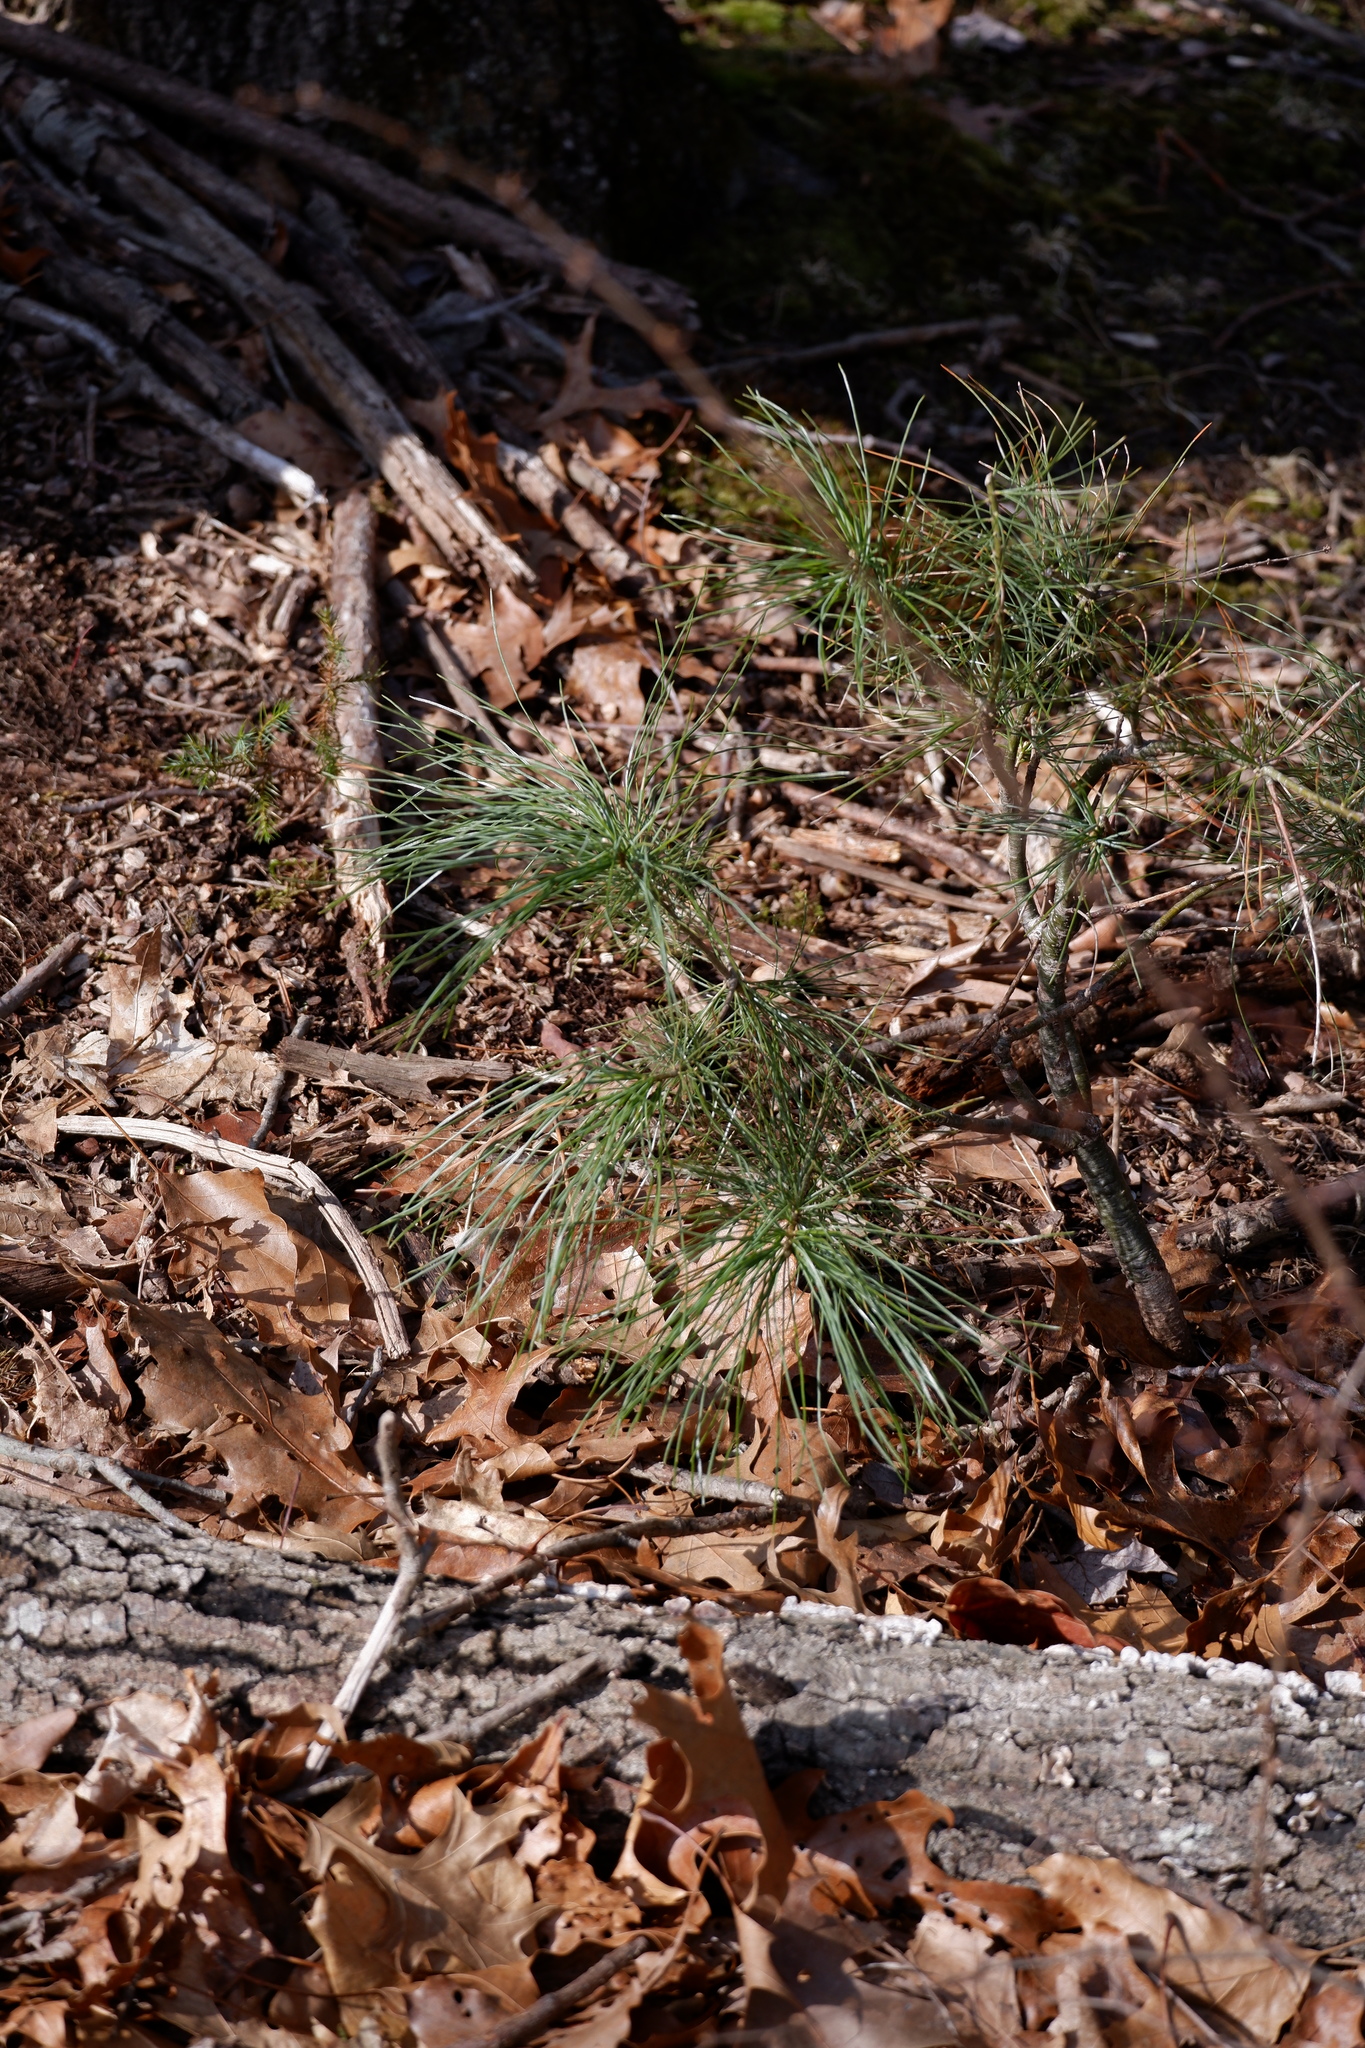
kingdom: Plantae
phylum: Tracheophyta
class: Pinopsida
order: Pinales
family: Pinaceae
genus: Pinus
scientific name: Pinus strobus
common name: Weymouth pine
